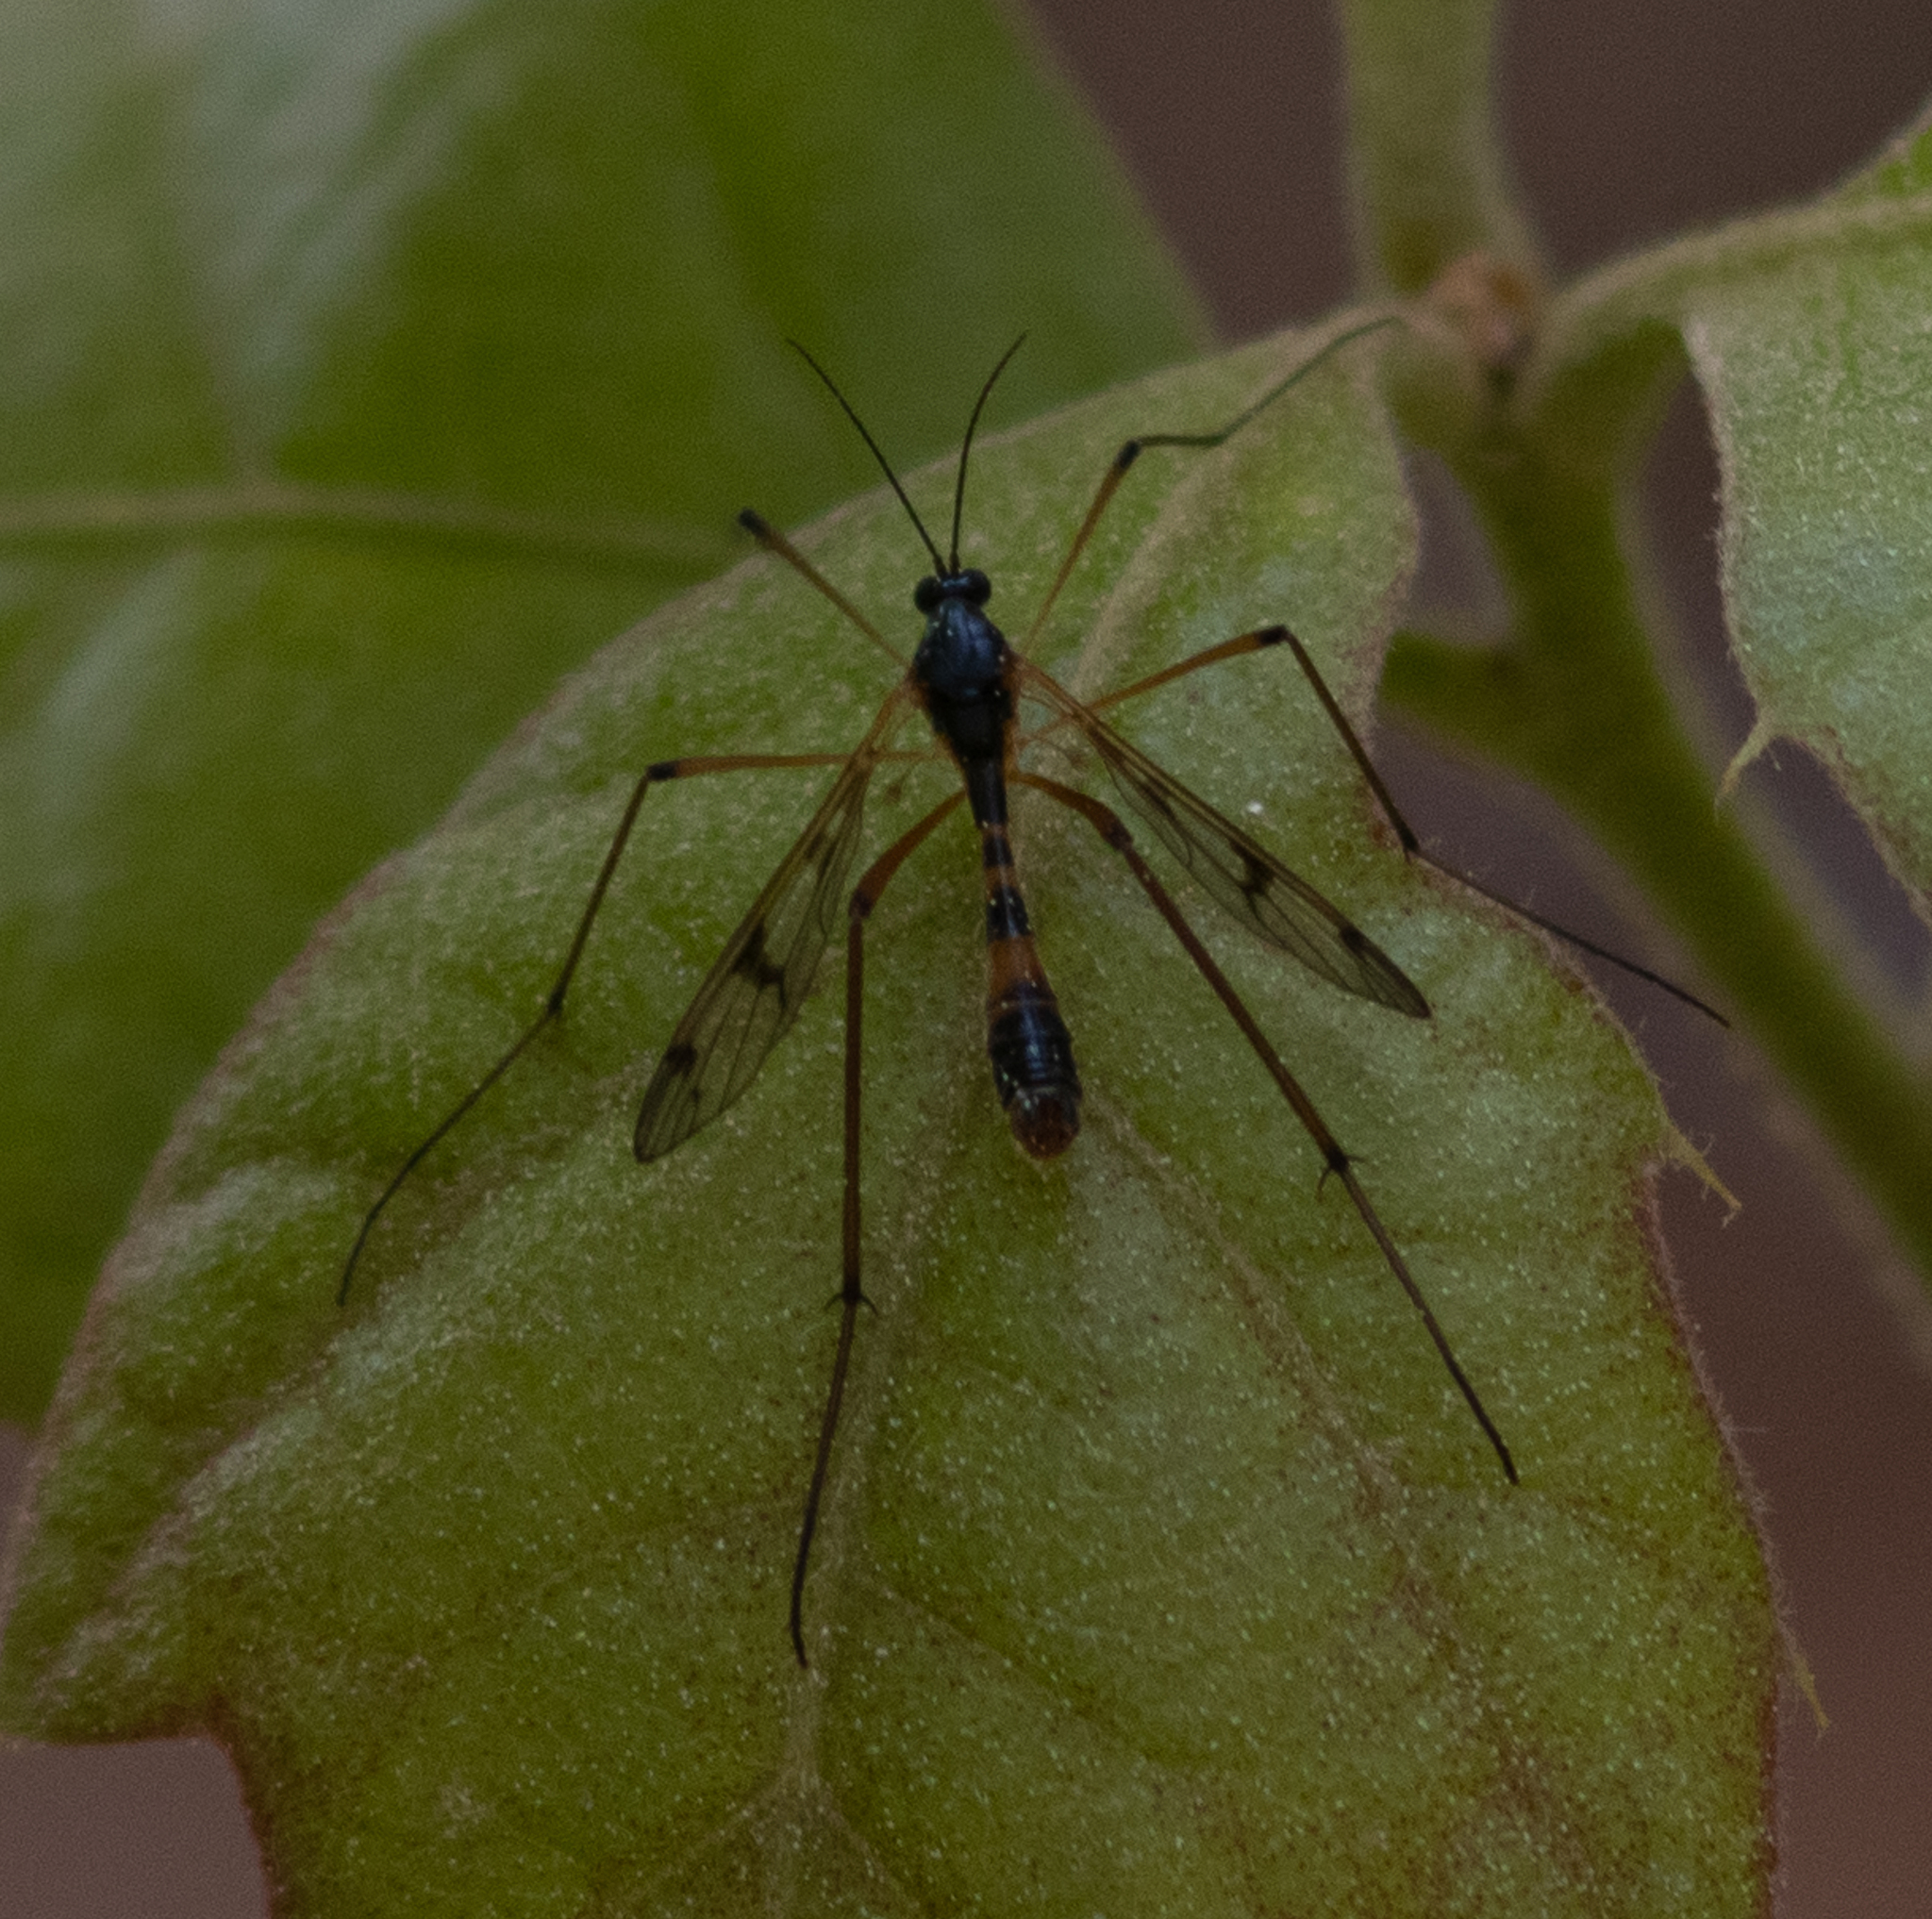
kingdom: Animalia
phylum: Arthropoda
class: Insecta
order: Diptera
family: Ptychopteridae
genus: Ptychoptera
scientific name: Ptychoptera quadrifasciata
